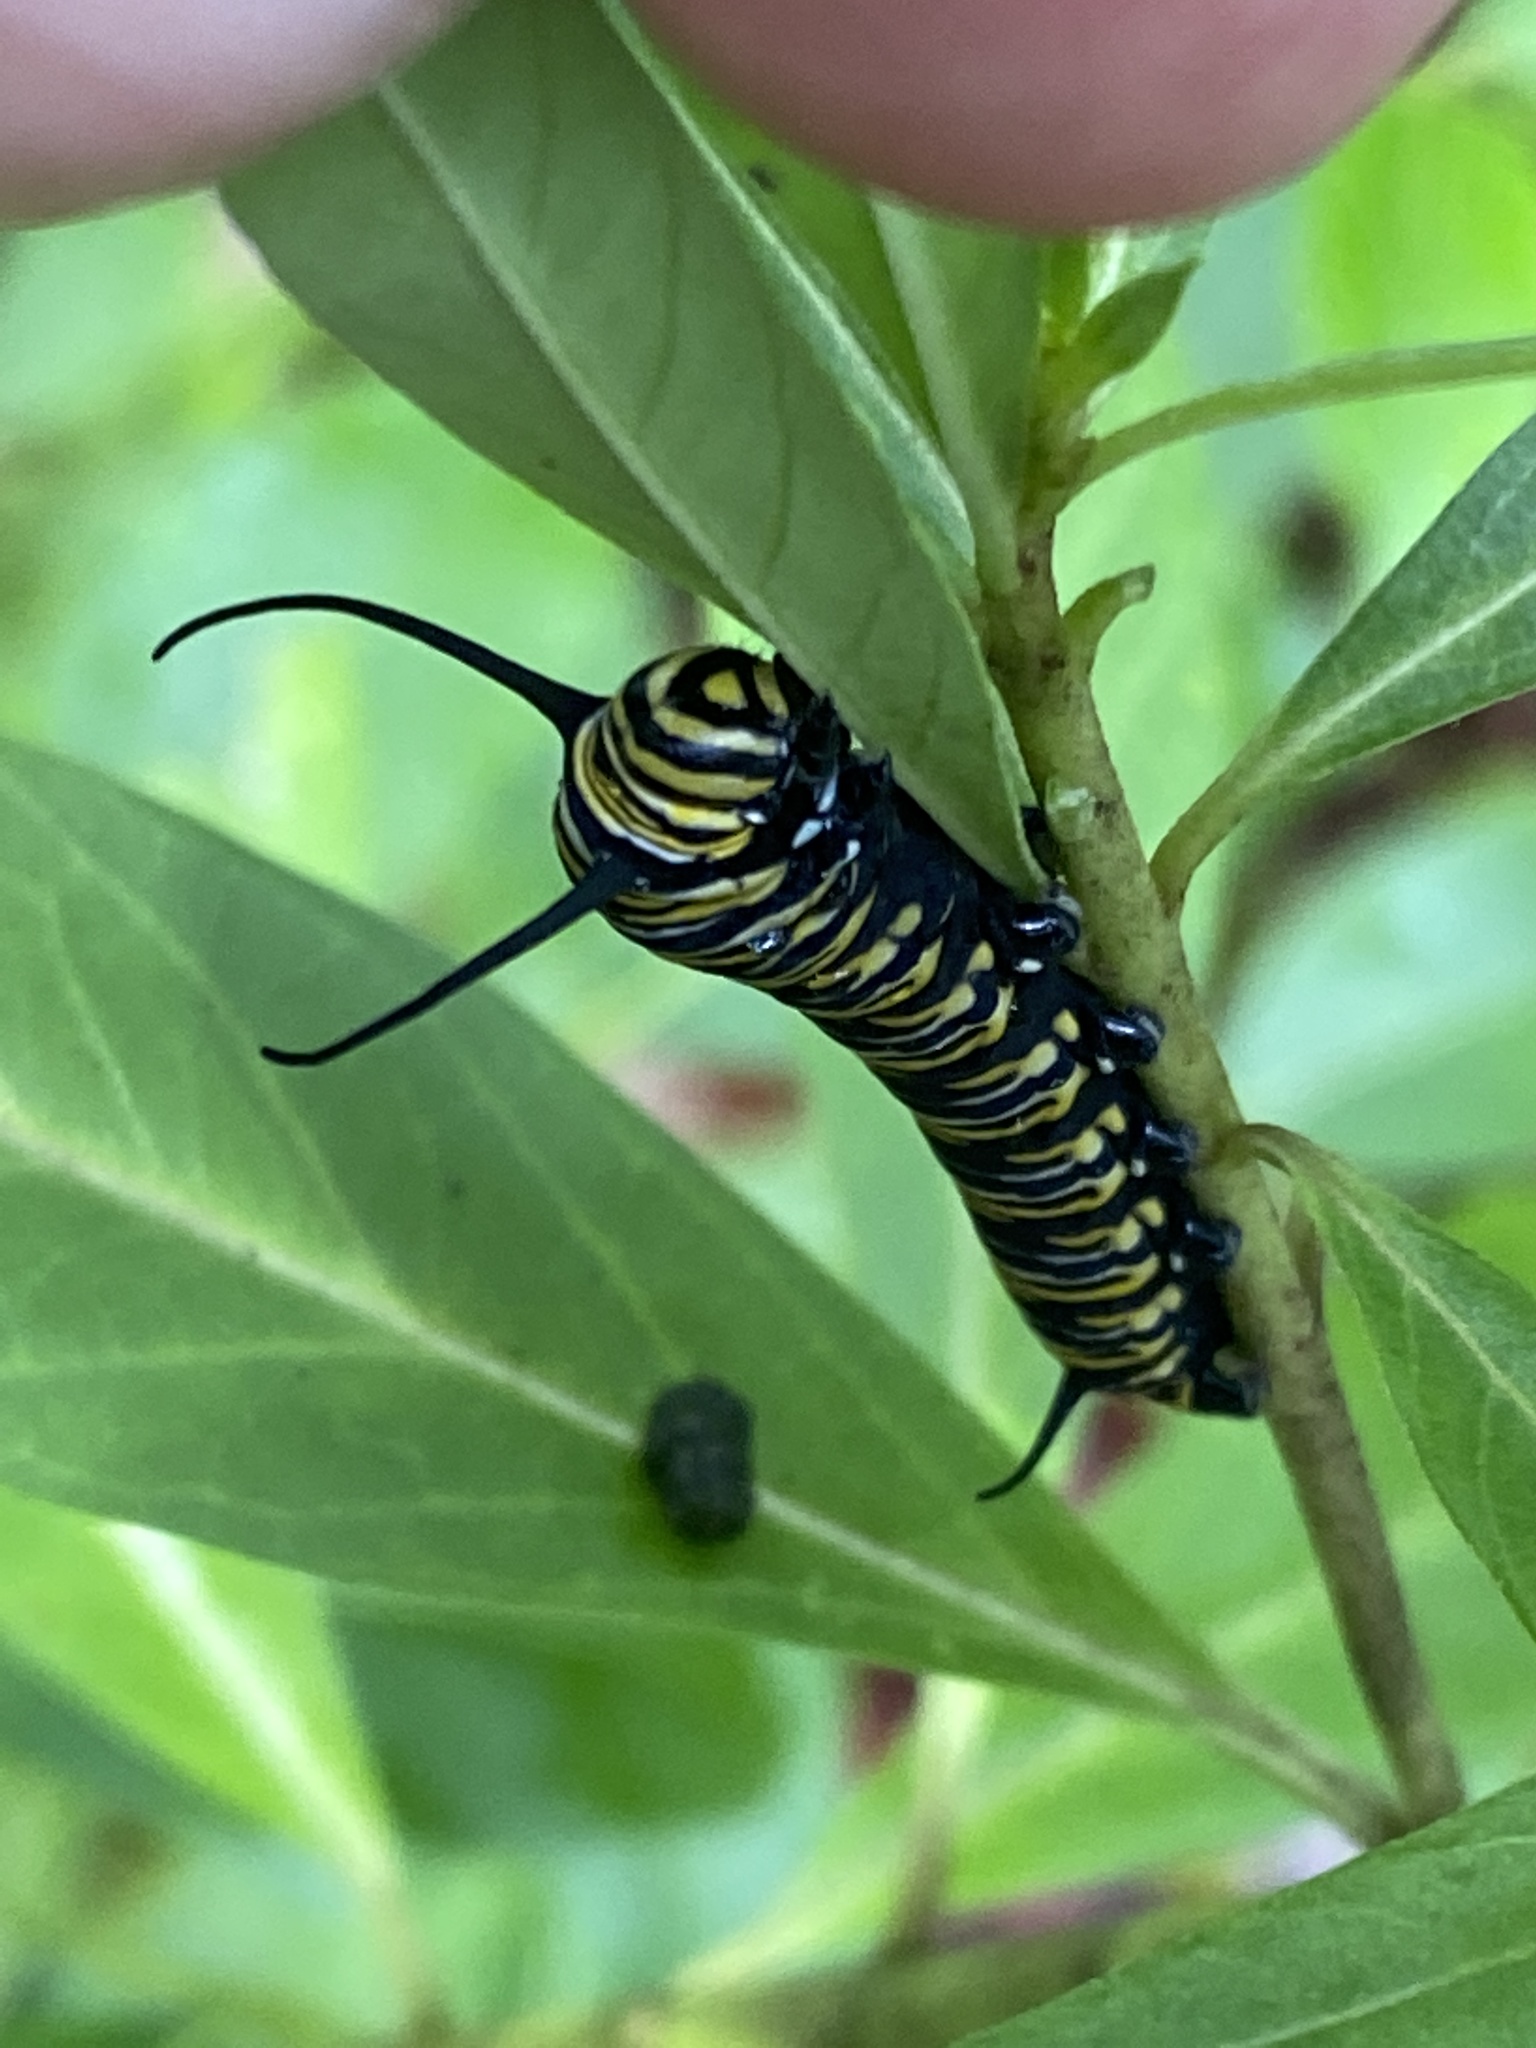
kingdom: Animalia
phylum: Arthropoda
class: Insecta
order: Lepidoptera
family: Nymphalidae
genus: Danaus
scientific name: Danaus plexippus
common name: Monarch
